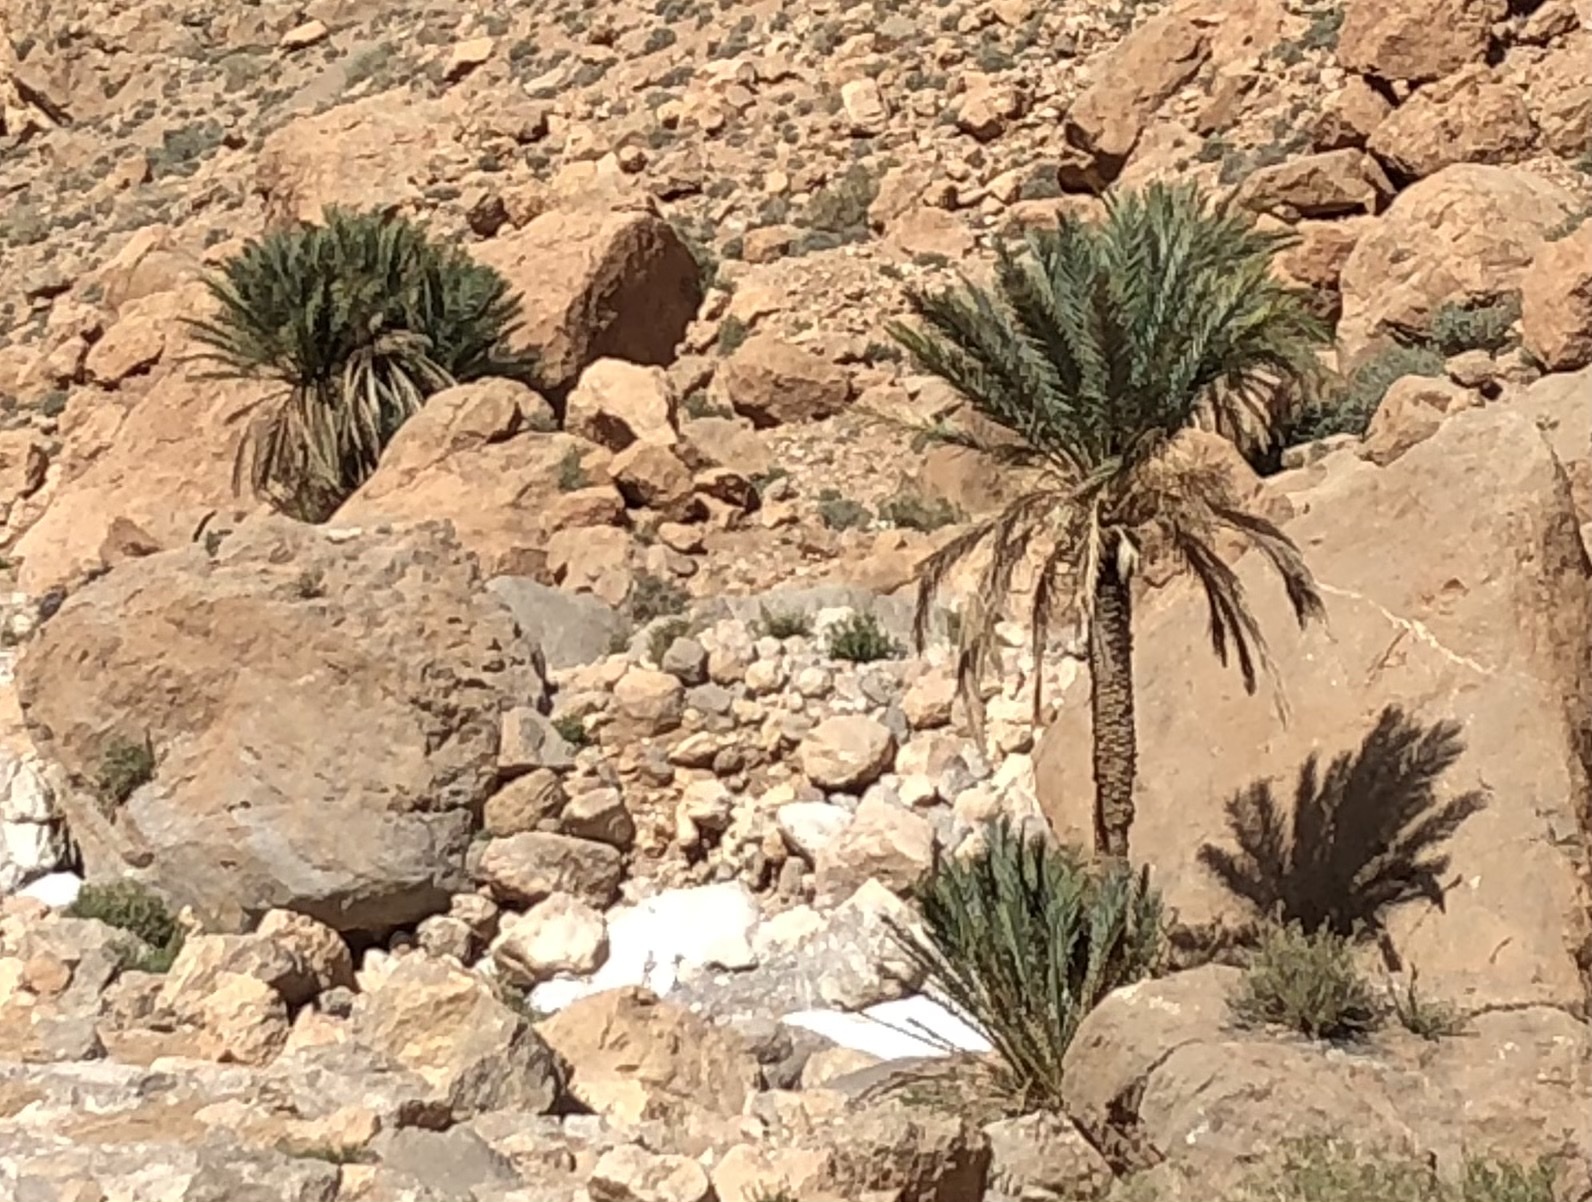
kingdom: Plantae
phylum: Tracheophyta
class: Liliopsida
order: Arecales
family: Arecaceae
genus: Phoenix
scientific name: Phoenix dactylifera
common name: Date palm
